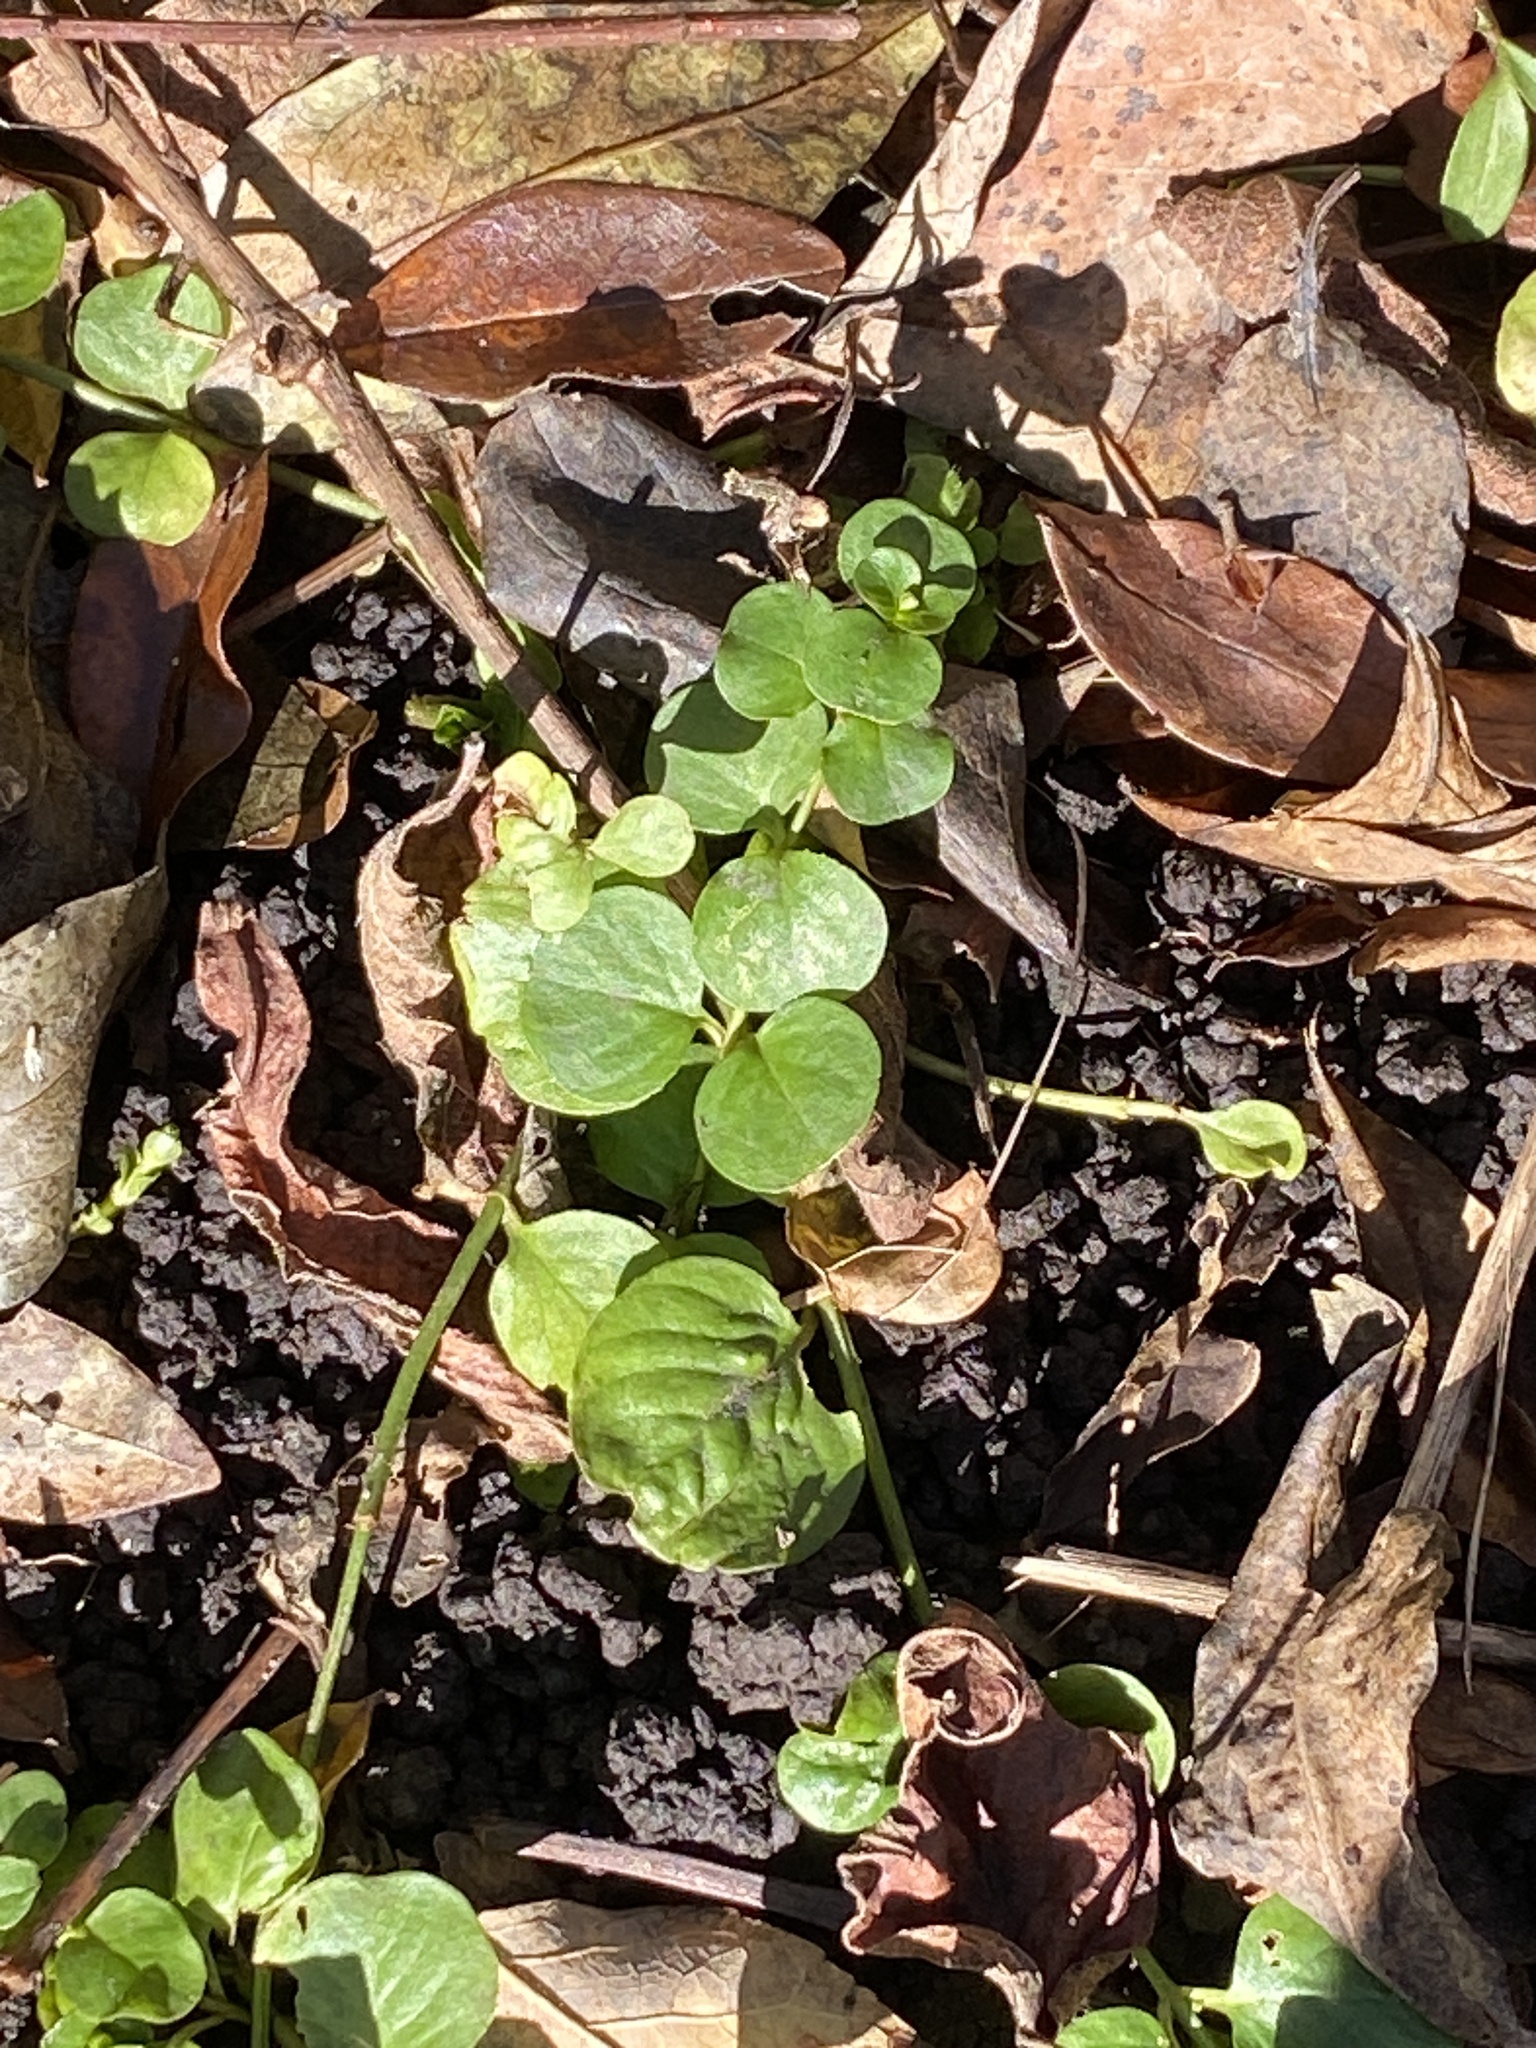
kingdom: Plantae
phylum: Tracheophyta
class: Magnoliopsida
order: Ericales
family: Primulaceae
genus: Lysimachia
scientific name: Lysimachia nummularia
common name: Moneywort
